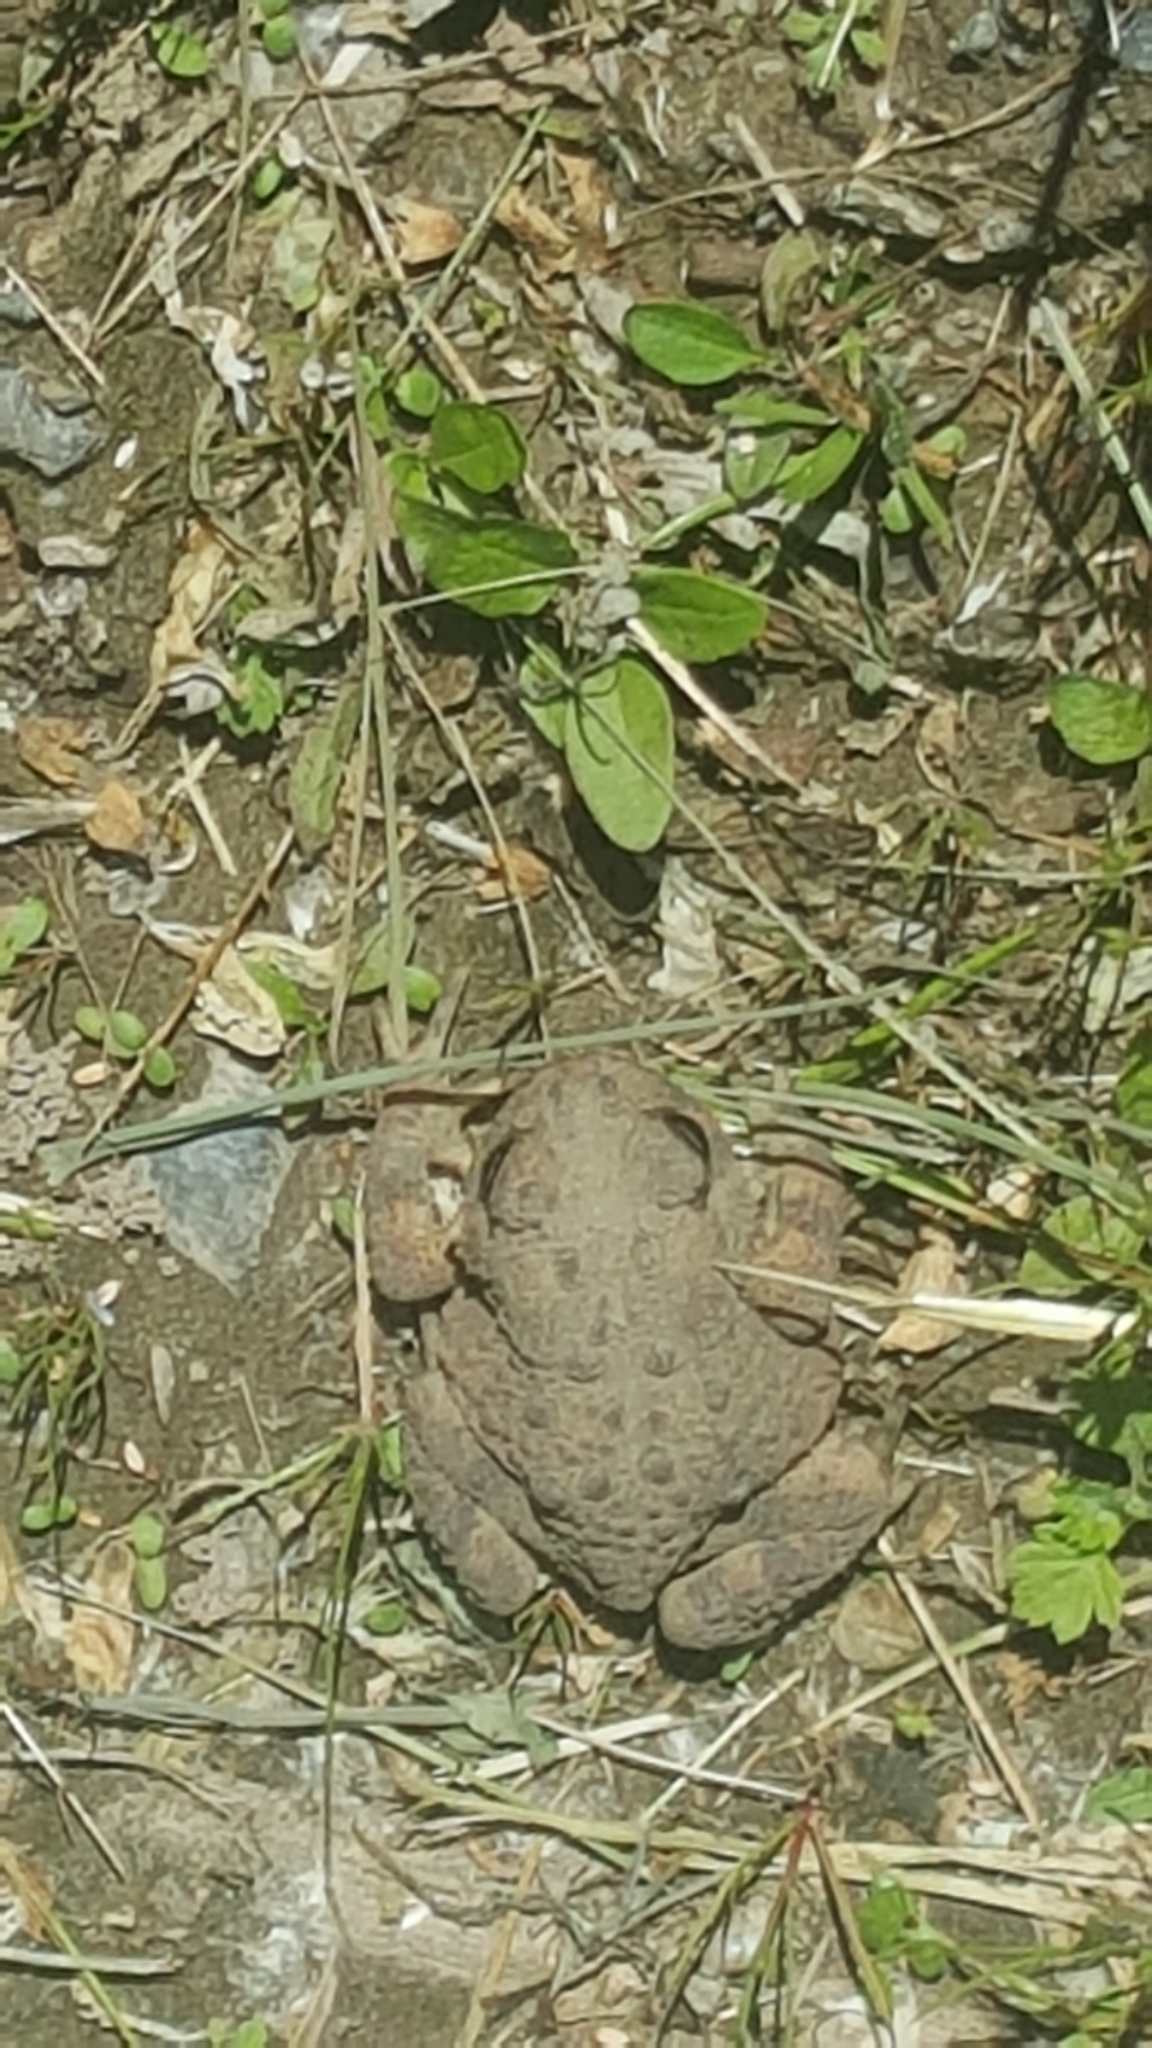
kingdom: Animalia
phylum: Chordata
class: Amphibia
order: Anura
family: Bufonidae
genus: Anaxyrus
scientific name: Anaxyrus americanus
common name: American toad
